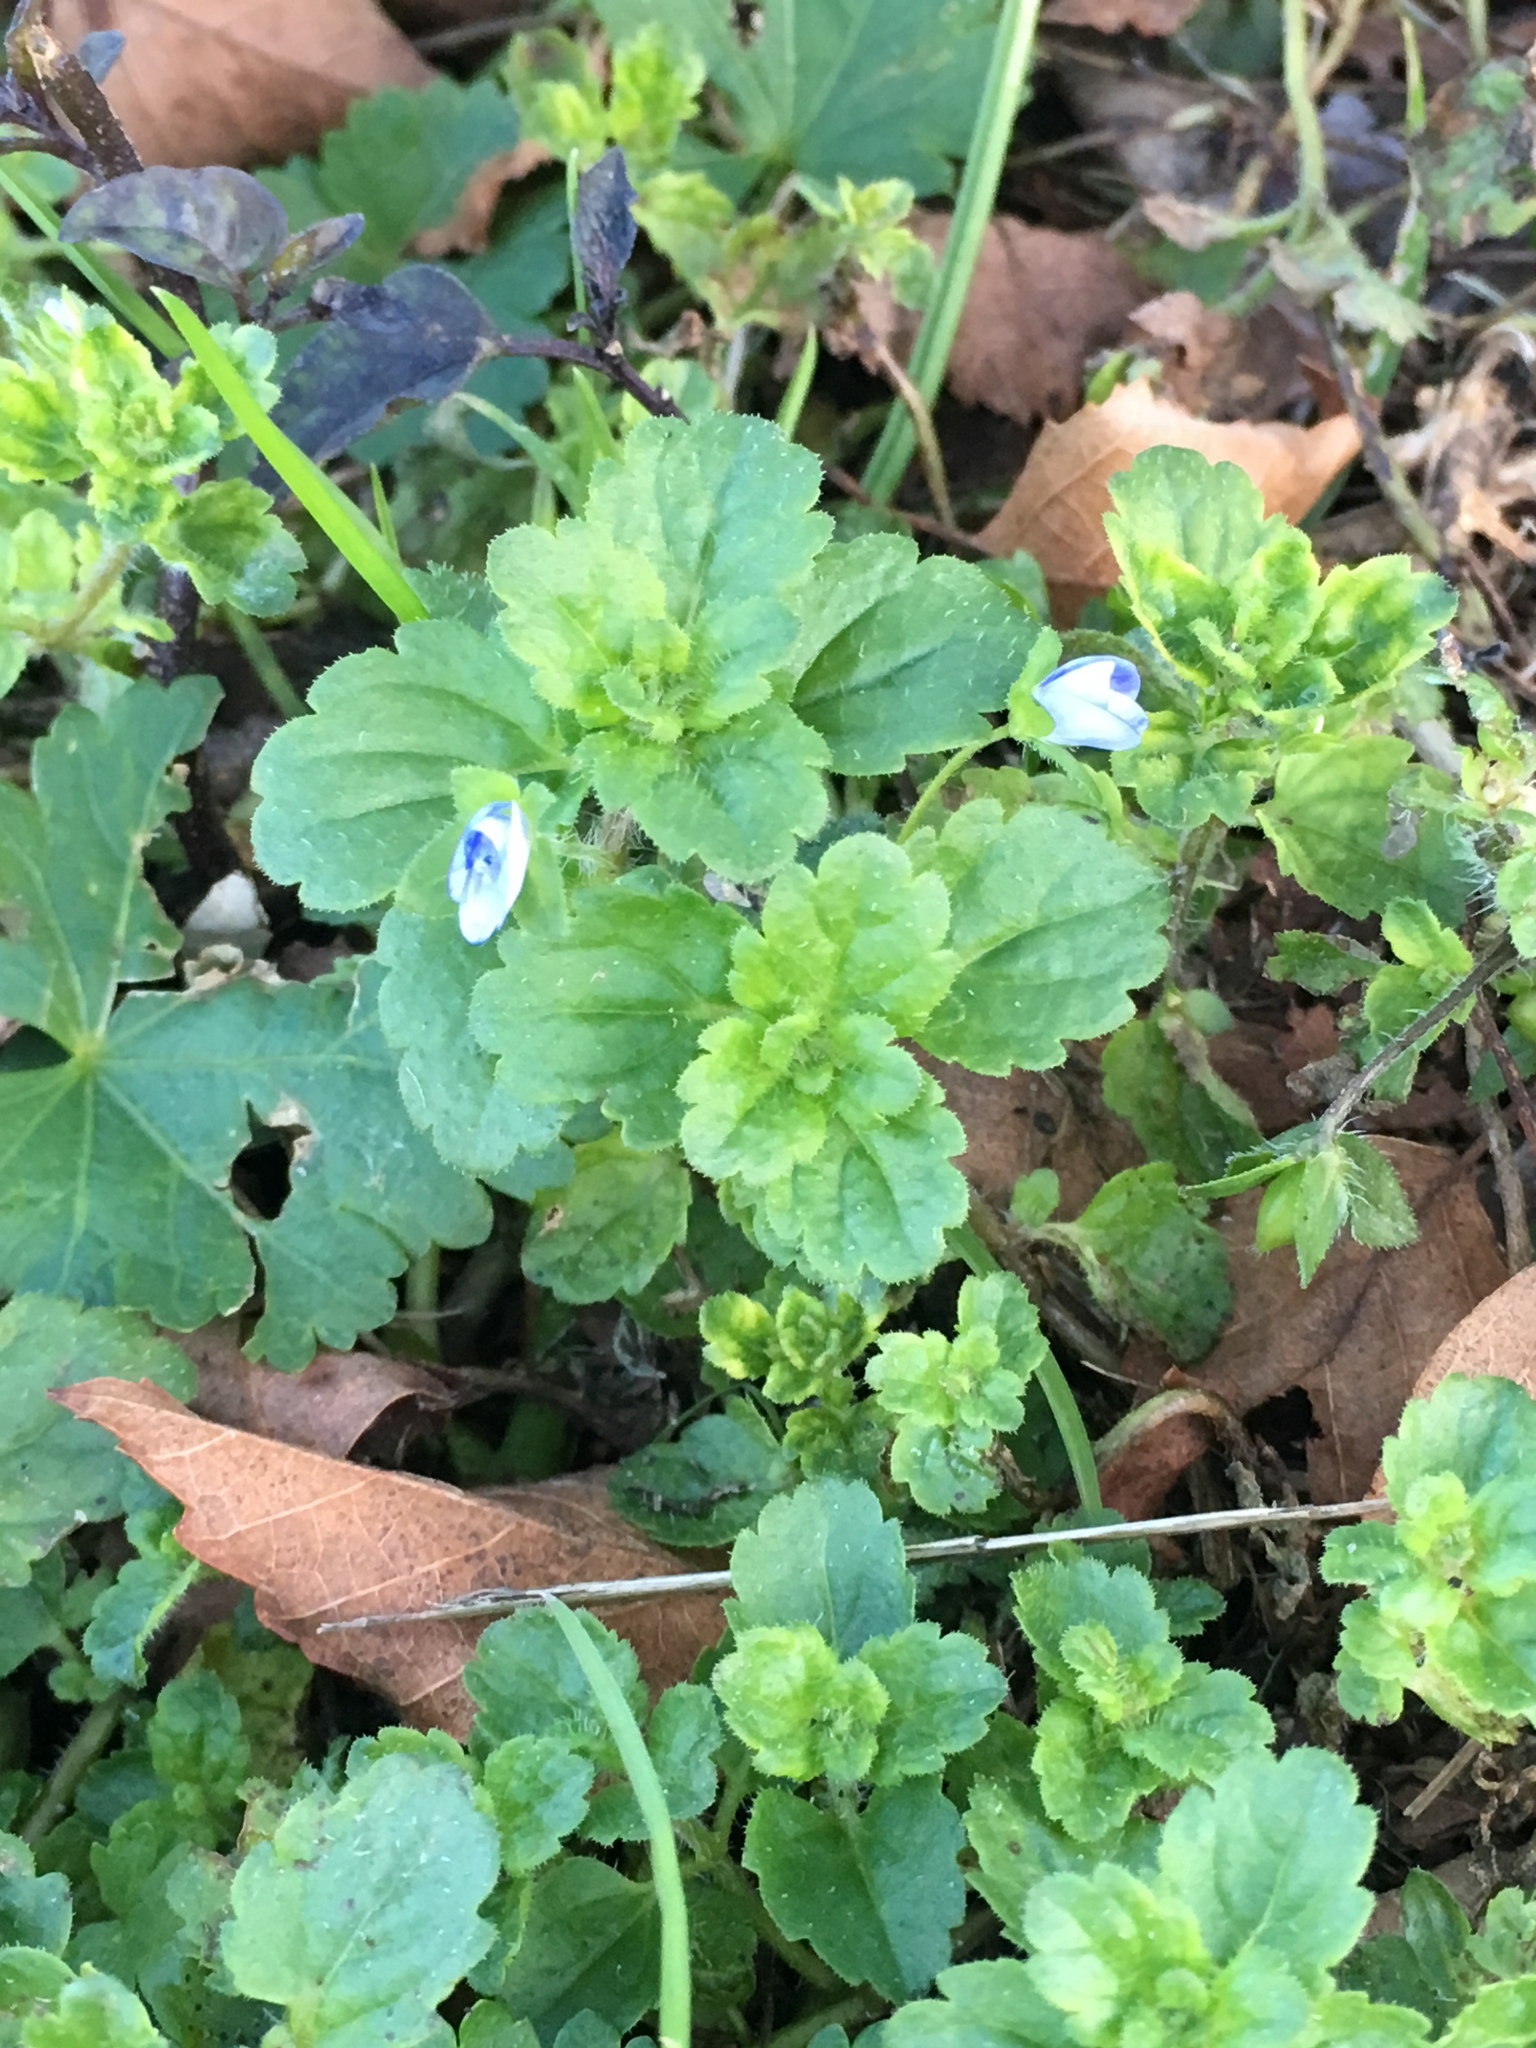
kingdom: Plantae
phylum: Tracheophyta
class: Magnoliopsida
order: Lamiales
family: Plantaginaceae
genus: Veronica
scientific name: Veronica persica
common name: Common field-speedwell
